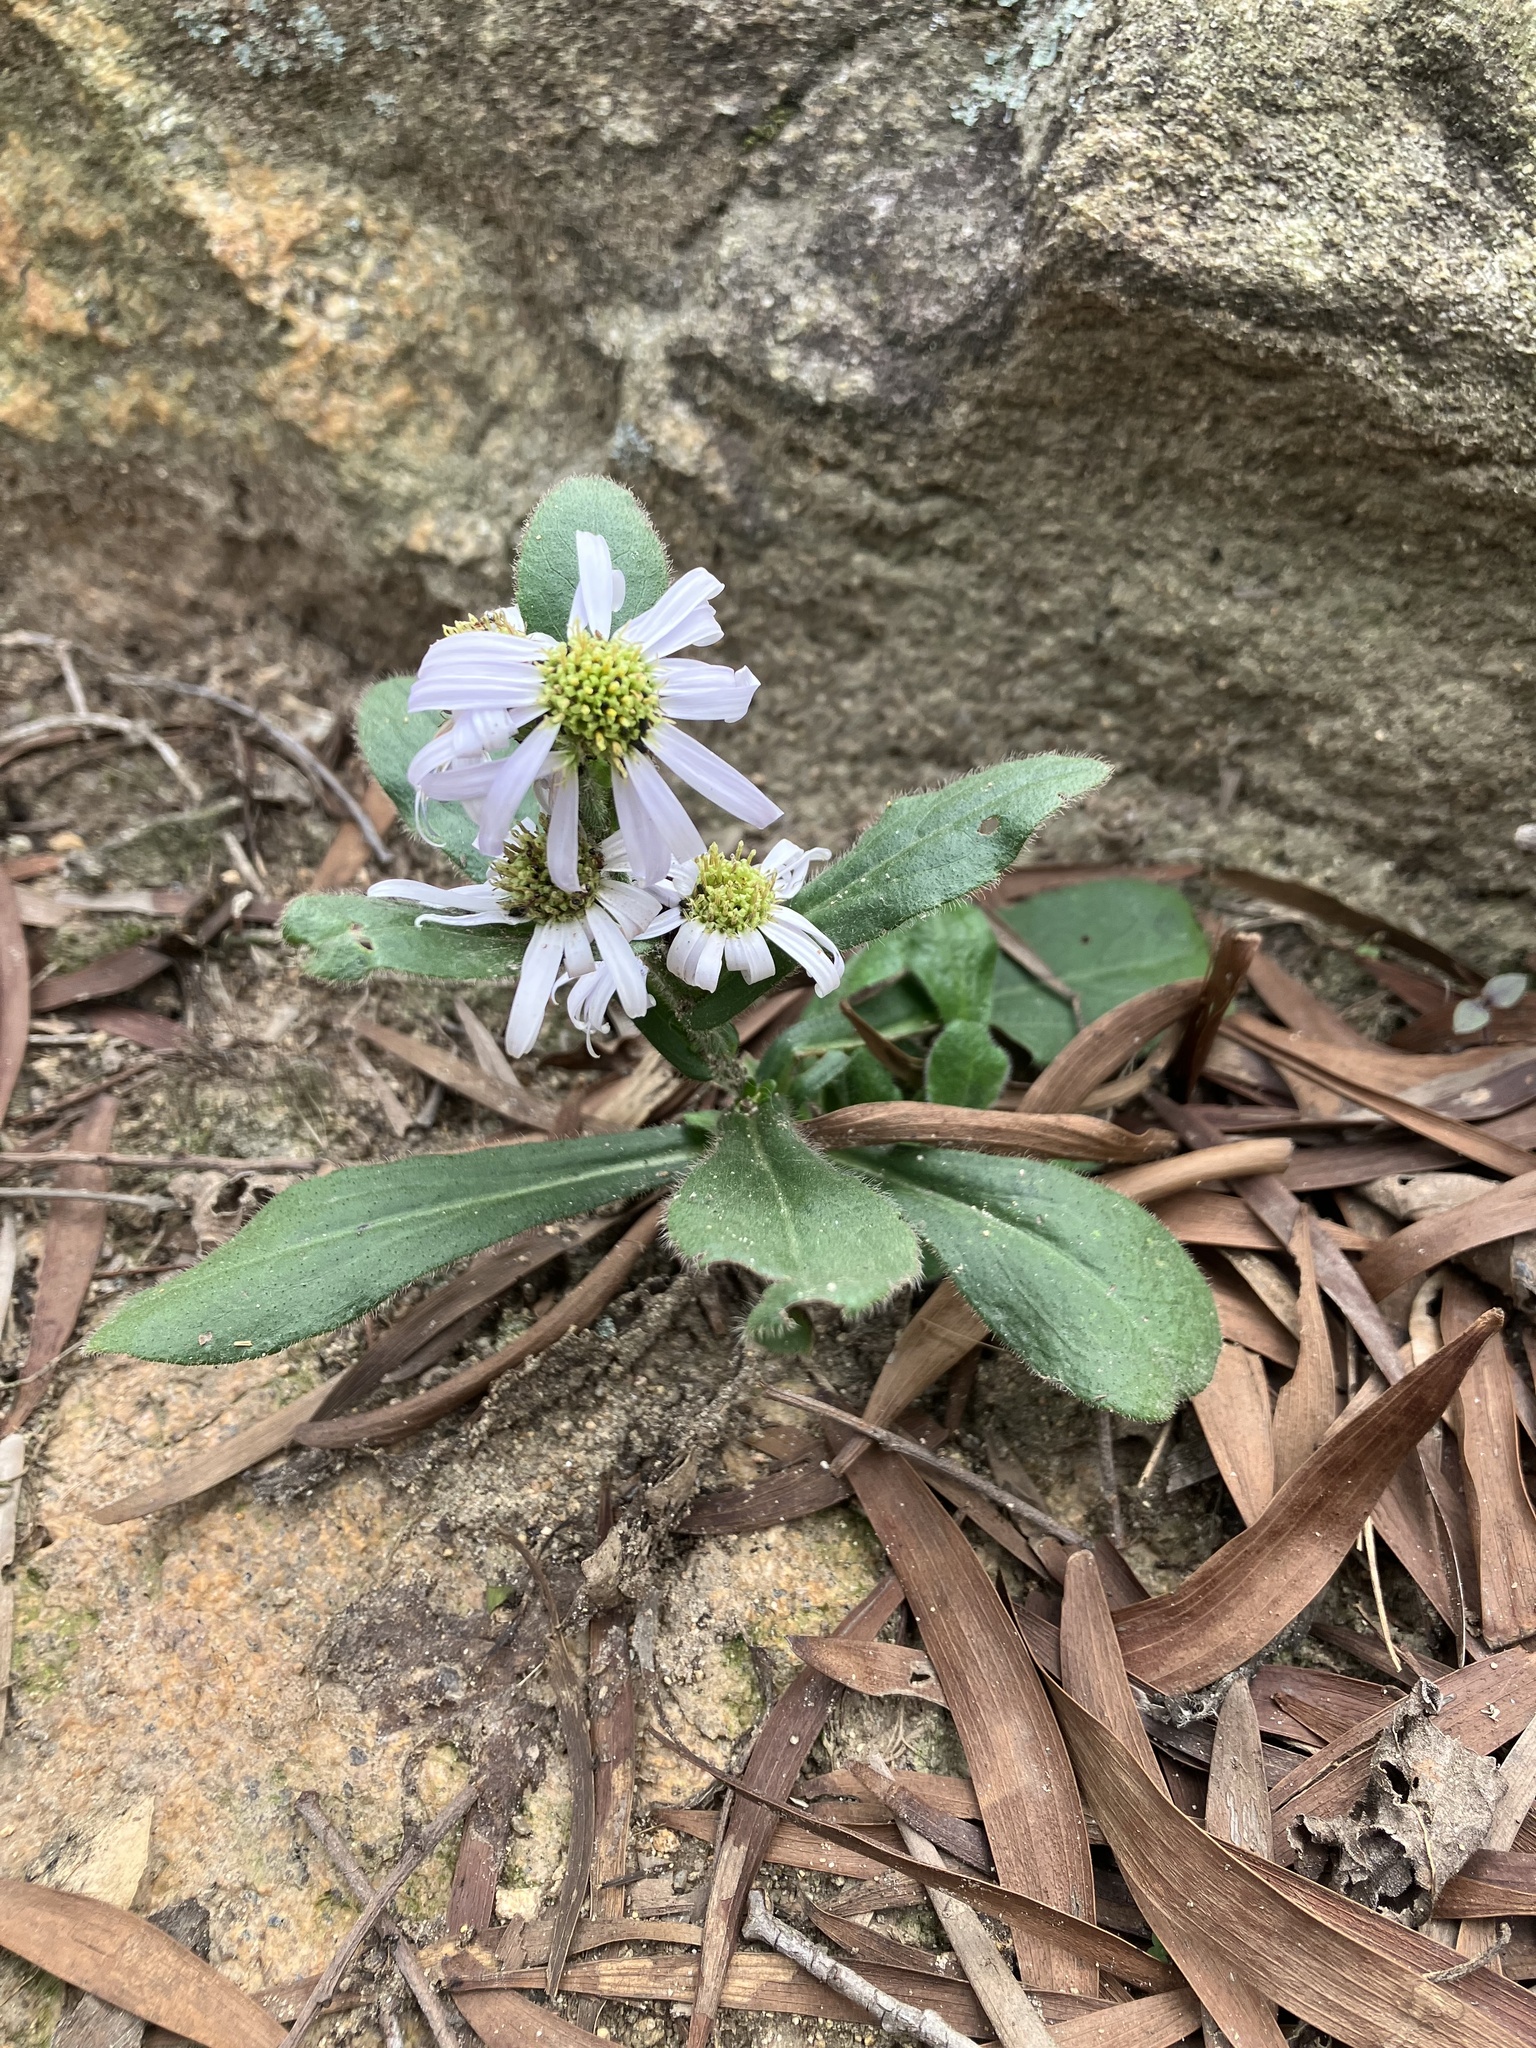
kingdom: Plantae
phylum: Tracheophyta
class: Magnoliopsida
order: Asterales
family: Asteraceae
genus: Metamyriactis
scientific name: Metamyriactis panduratus
